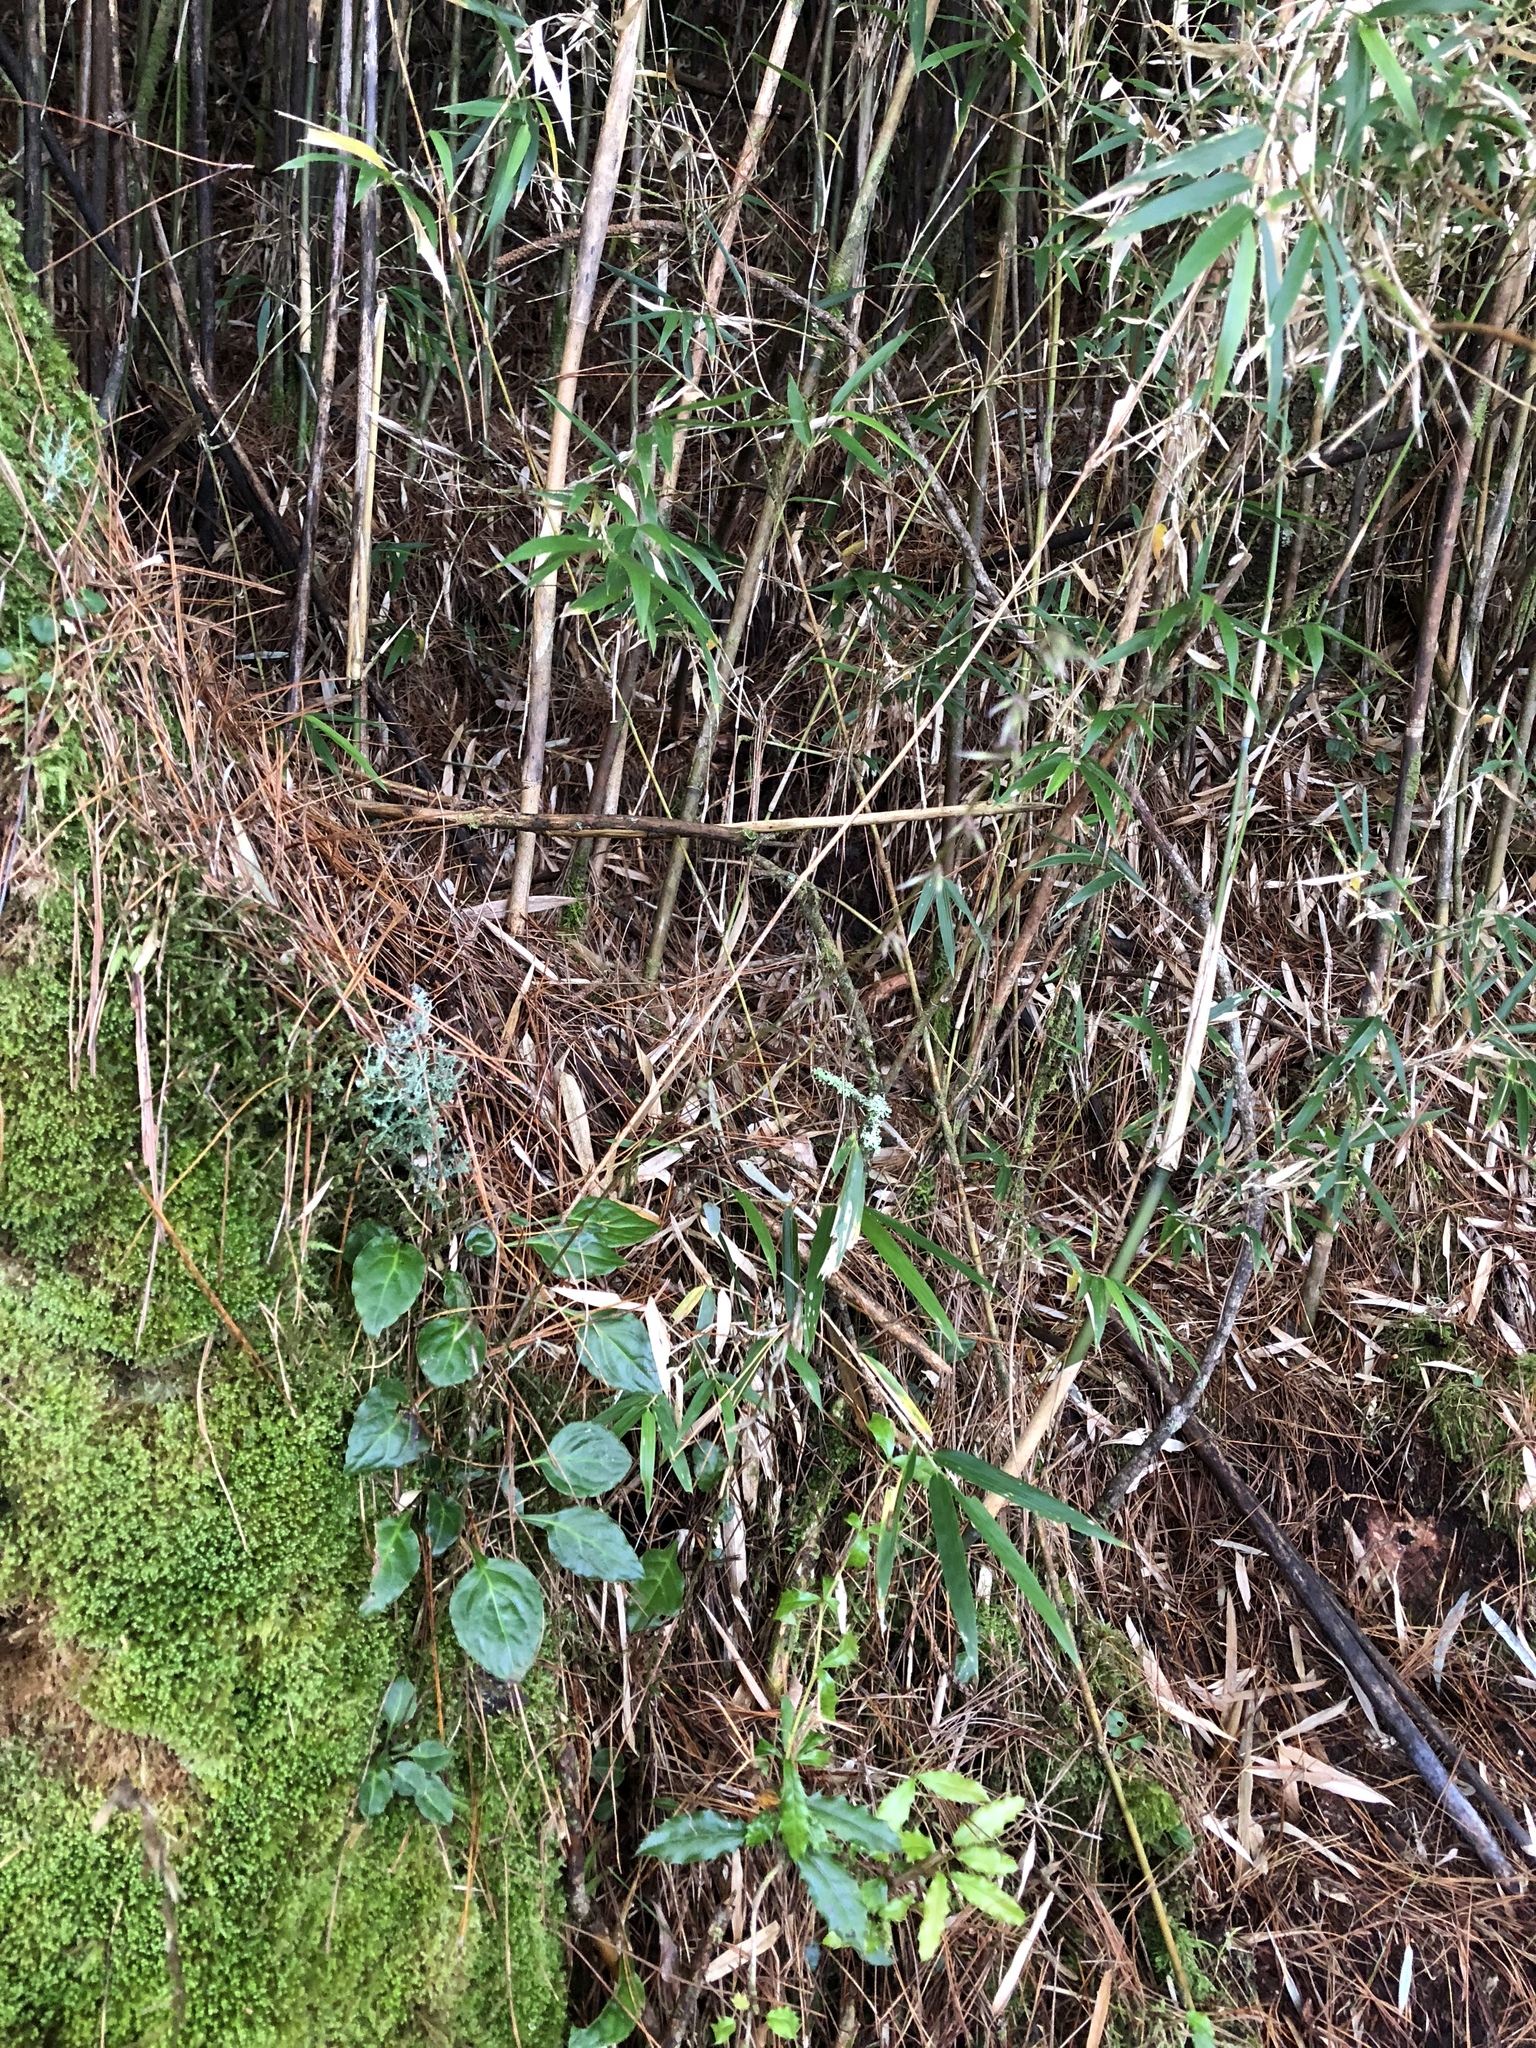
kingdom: Plantae
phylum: Tracheophyta
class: Magnoliopsida
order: Asterales
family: Asteraceae
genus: Ainsliaea
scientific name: Ainsliaea henryi
